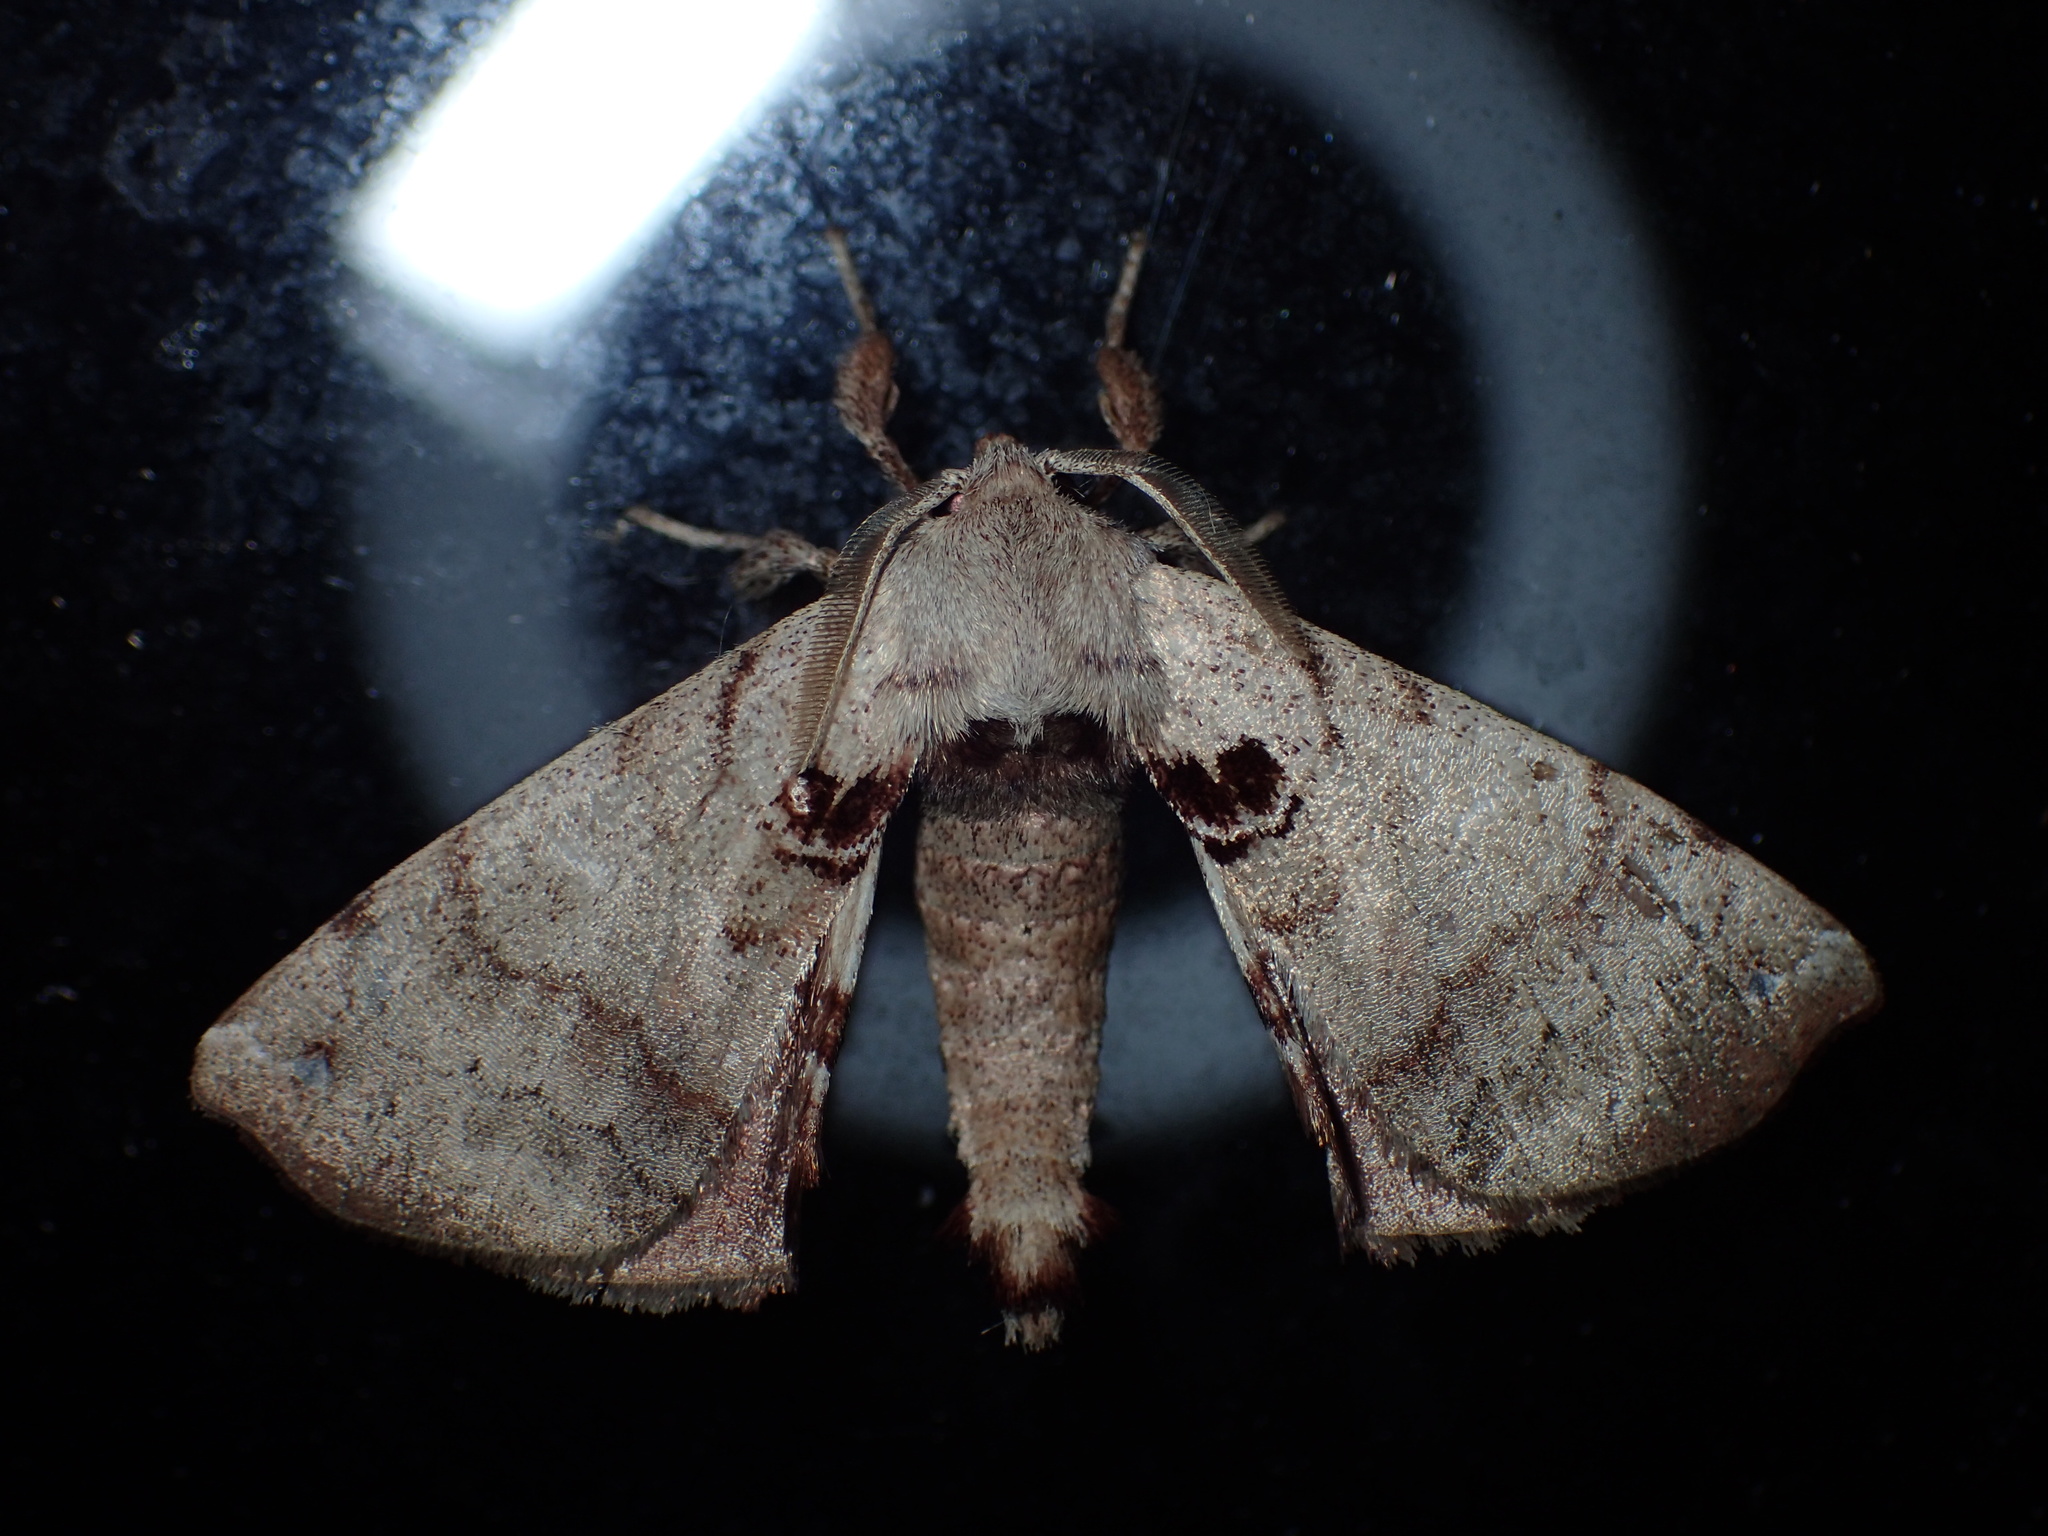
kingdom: Animalia
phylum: Arthropoda
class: Insecta
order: Lepidoptera
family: Apatelodidae
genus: Hygrochroa
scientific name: Hygrochroa Apatelodes torrefacta
